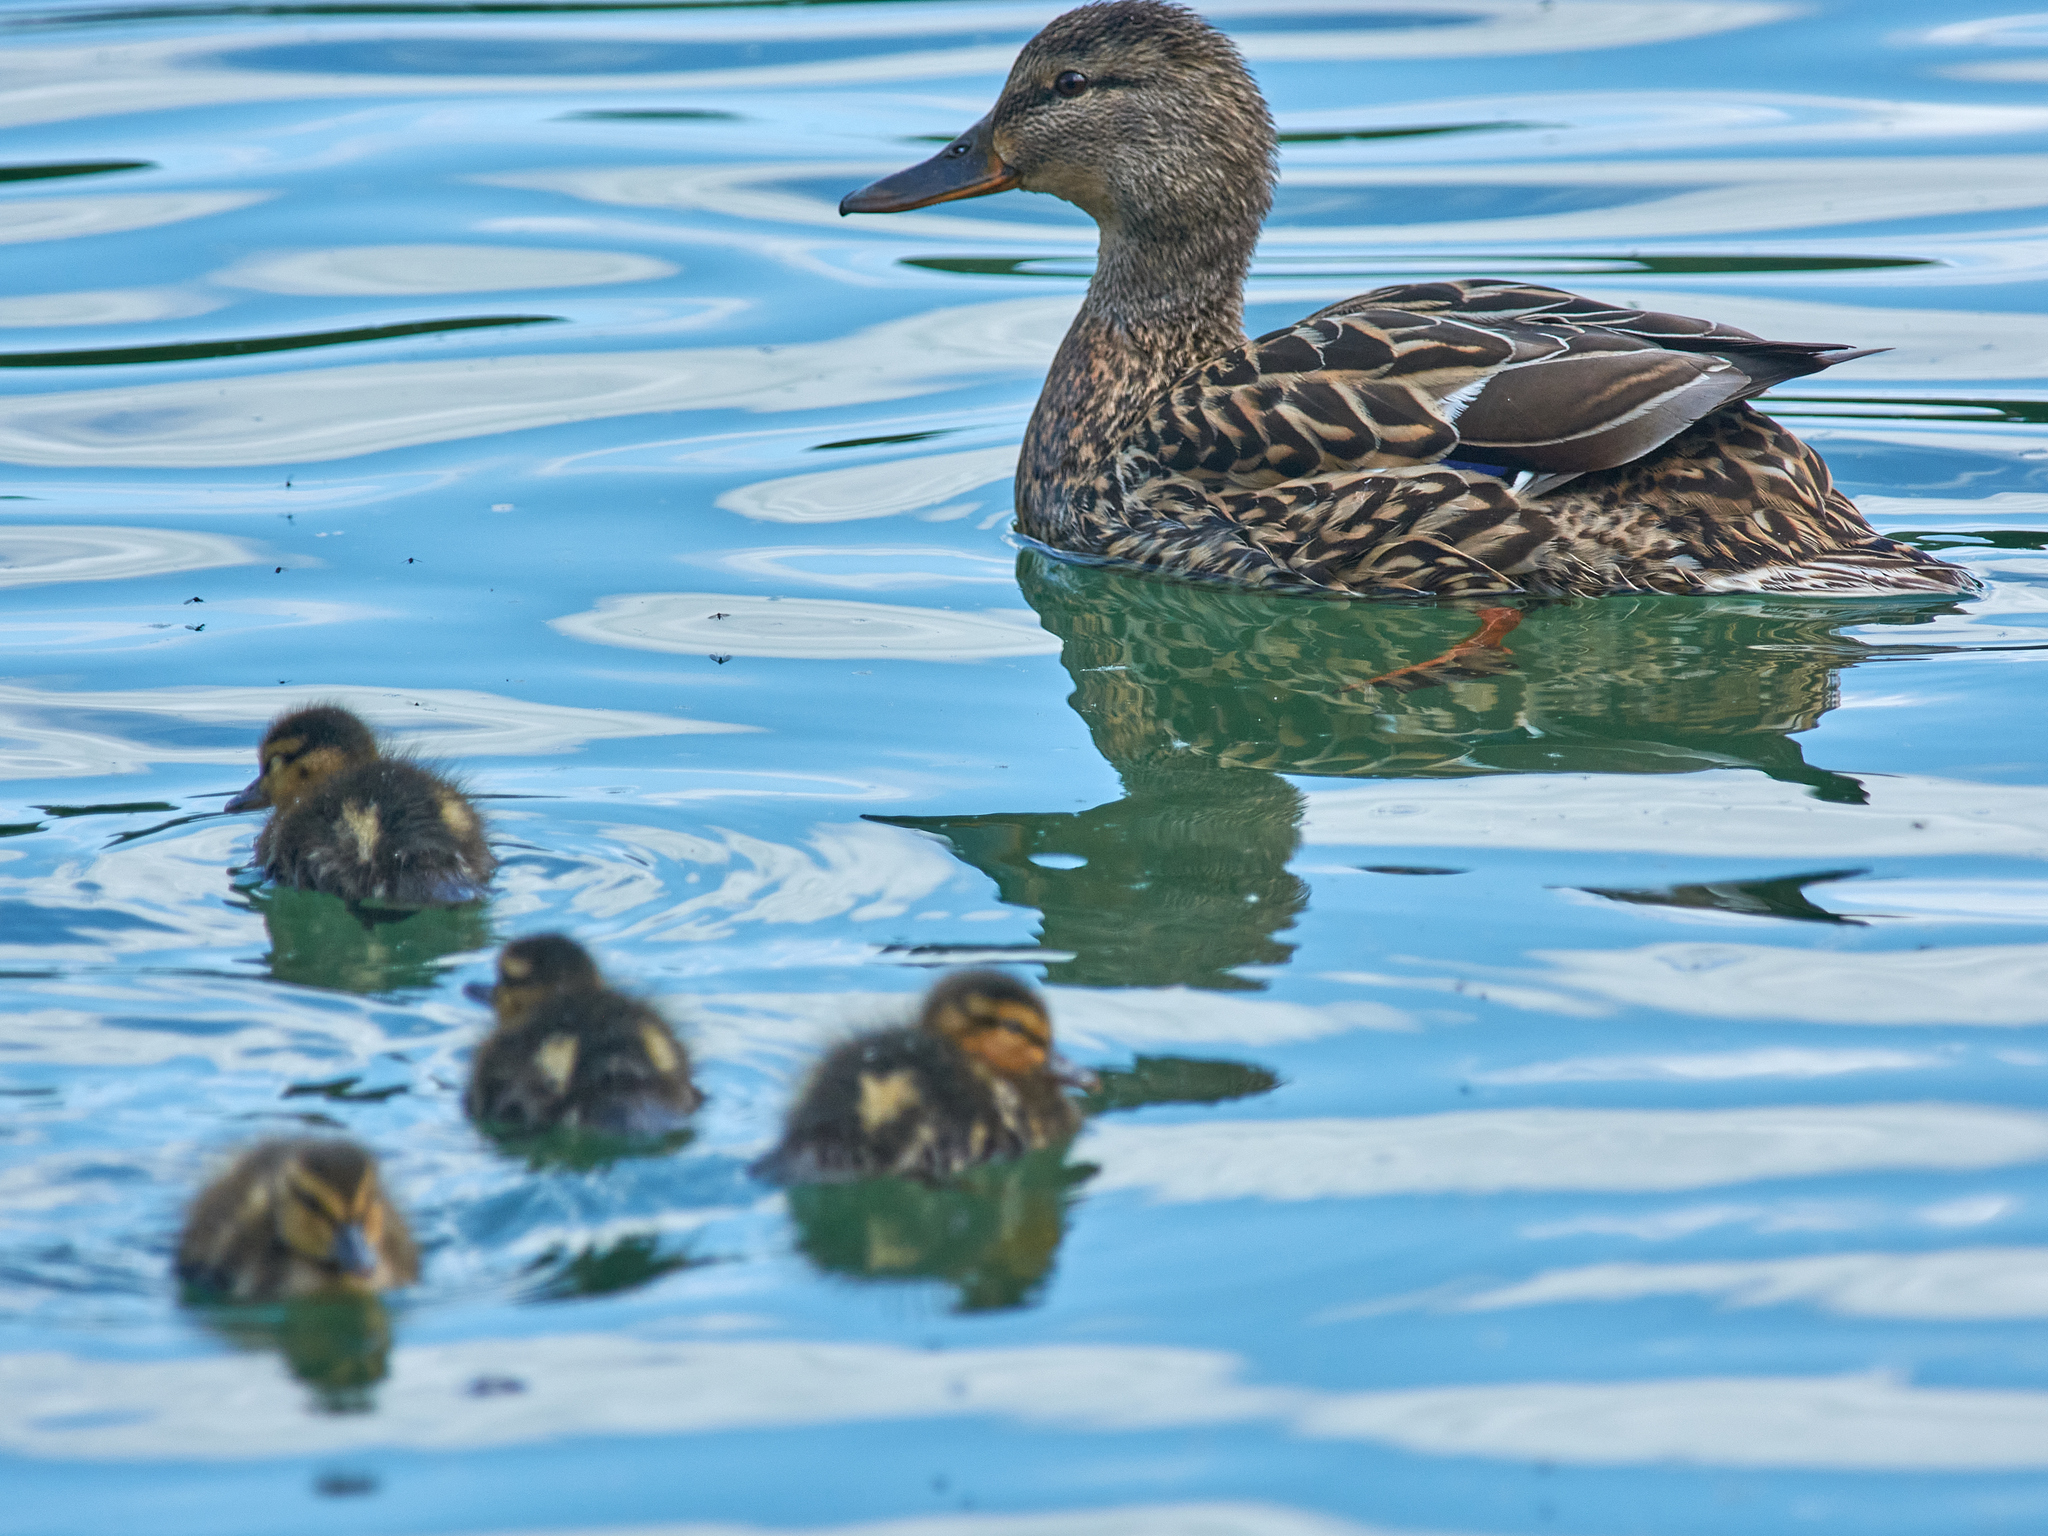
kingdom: Animalia
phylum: Chordata
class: Aves
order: Anseriformes
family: Anatidae
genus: Anas
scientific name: Anas platyrhynchos
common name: Mallard
